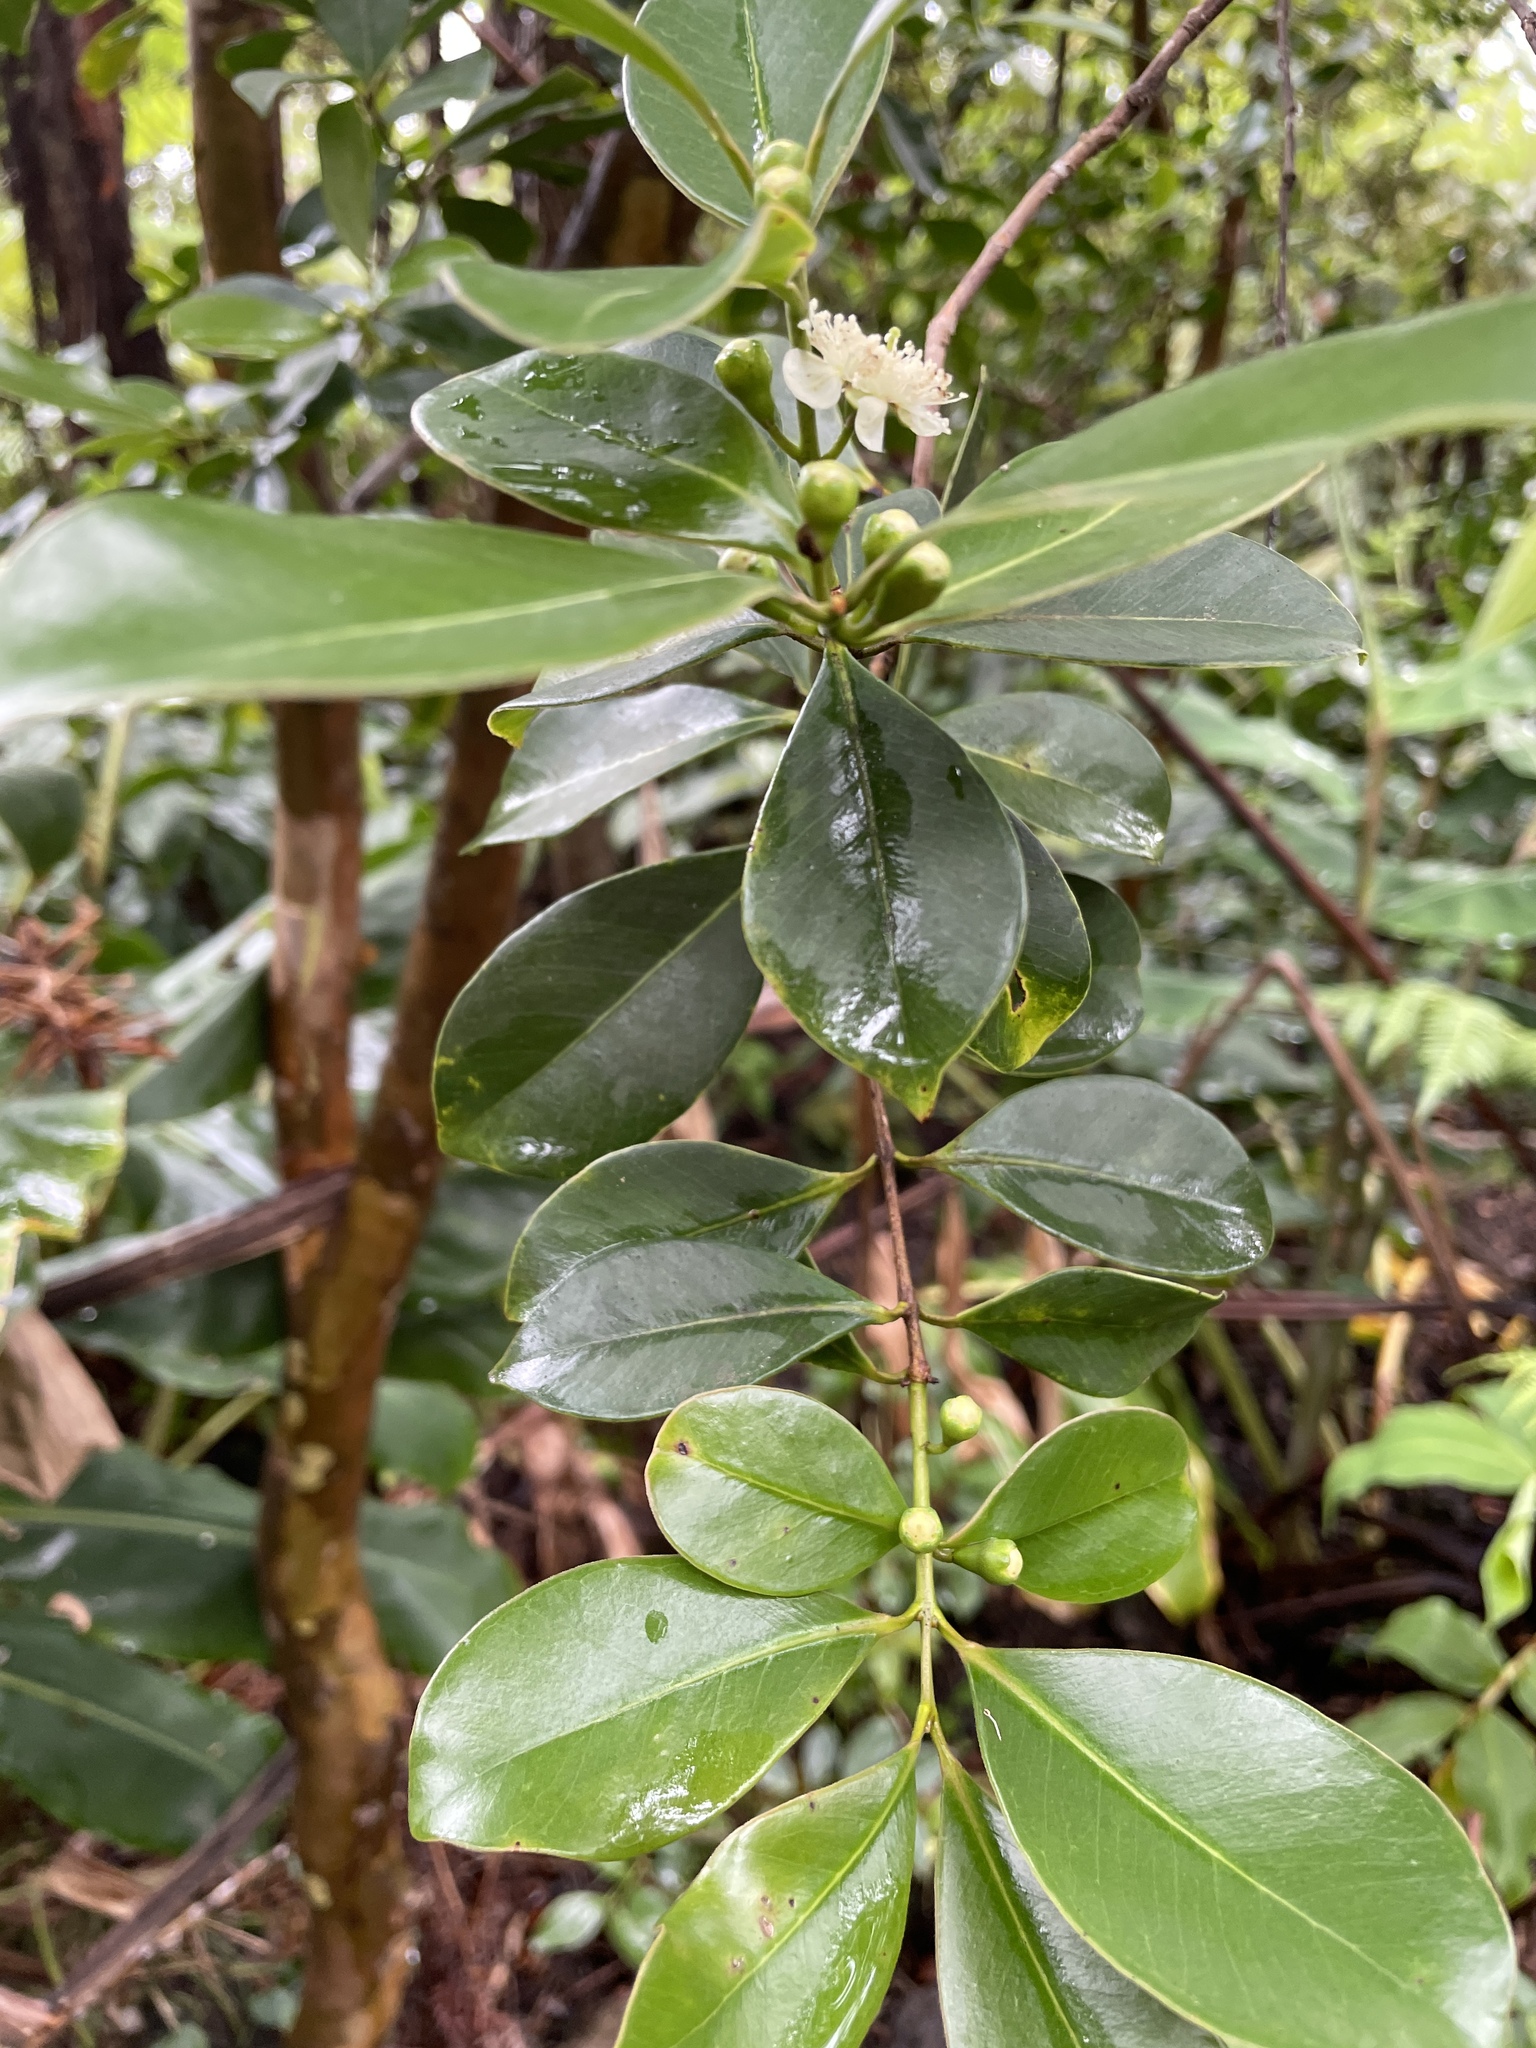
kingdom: Plantae
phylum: Tracheophyta
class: Magnoliopsida
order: Myrtales
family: Myrtaceae
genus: Psidium
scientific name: Psidium cattleianum
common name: Strawberry guava
